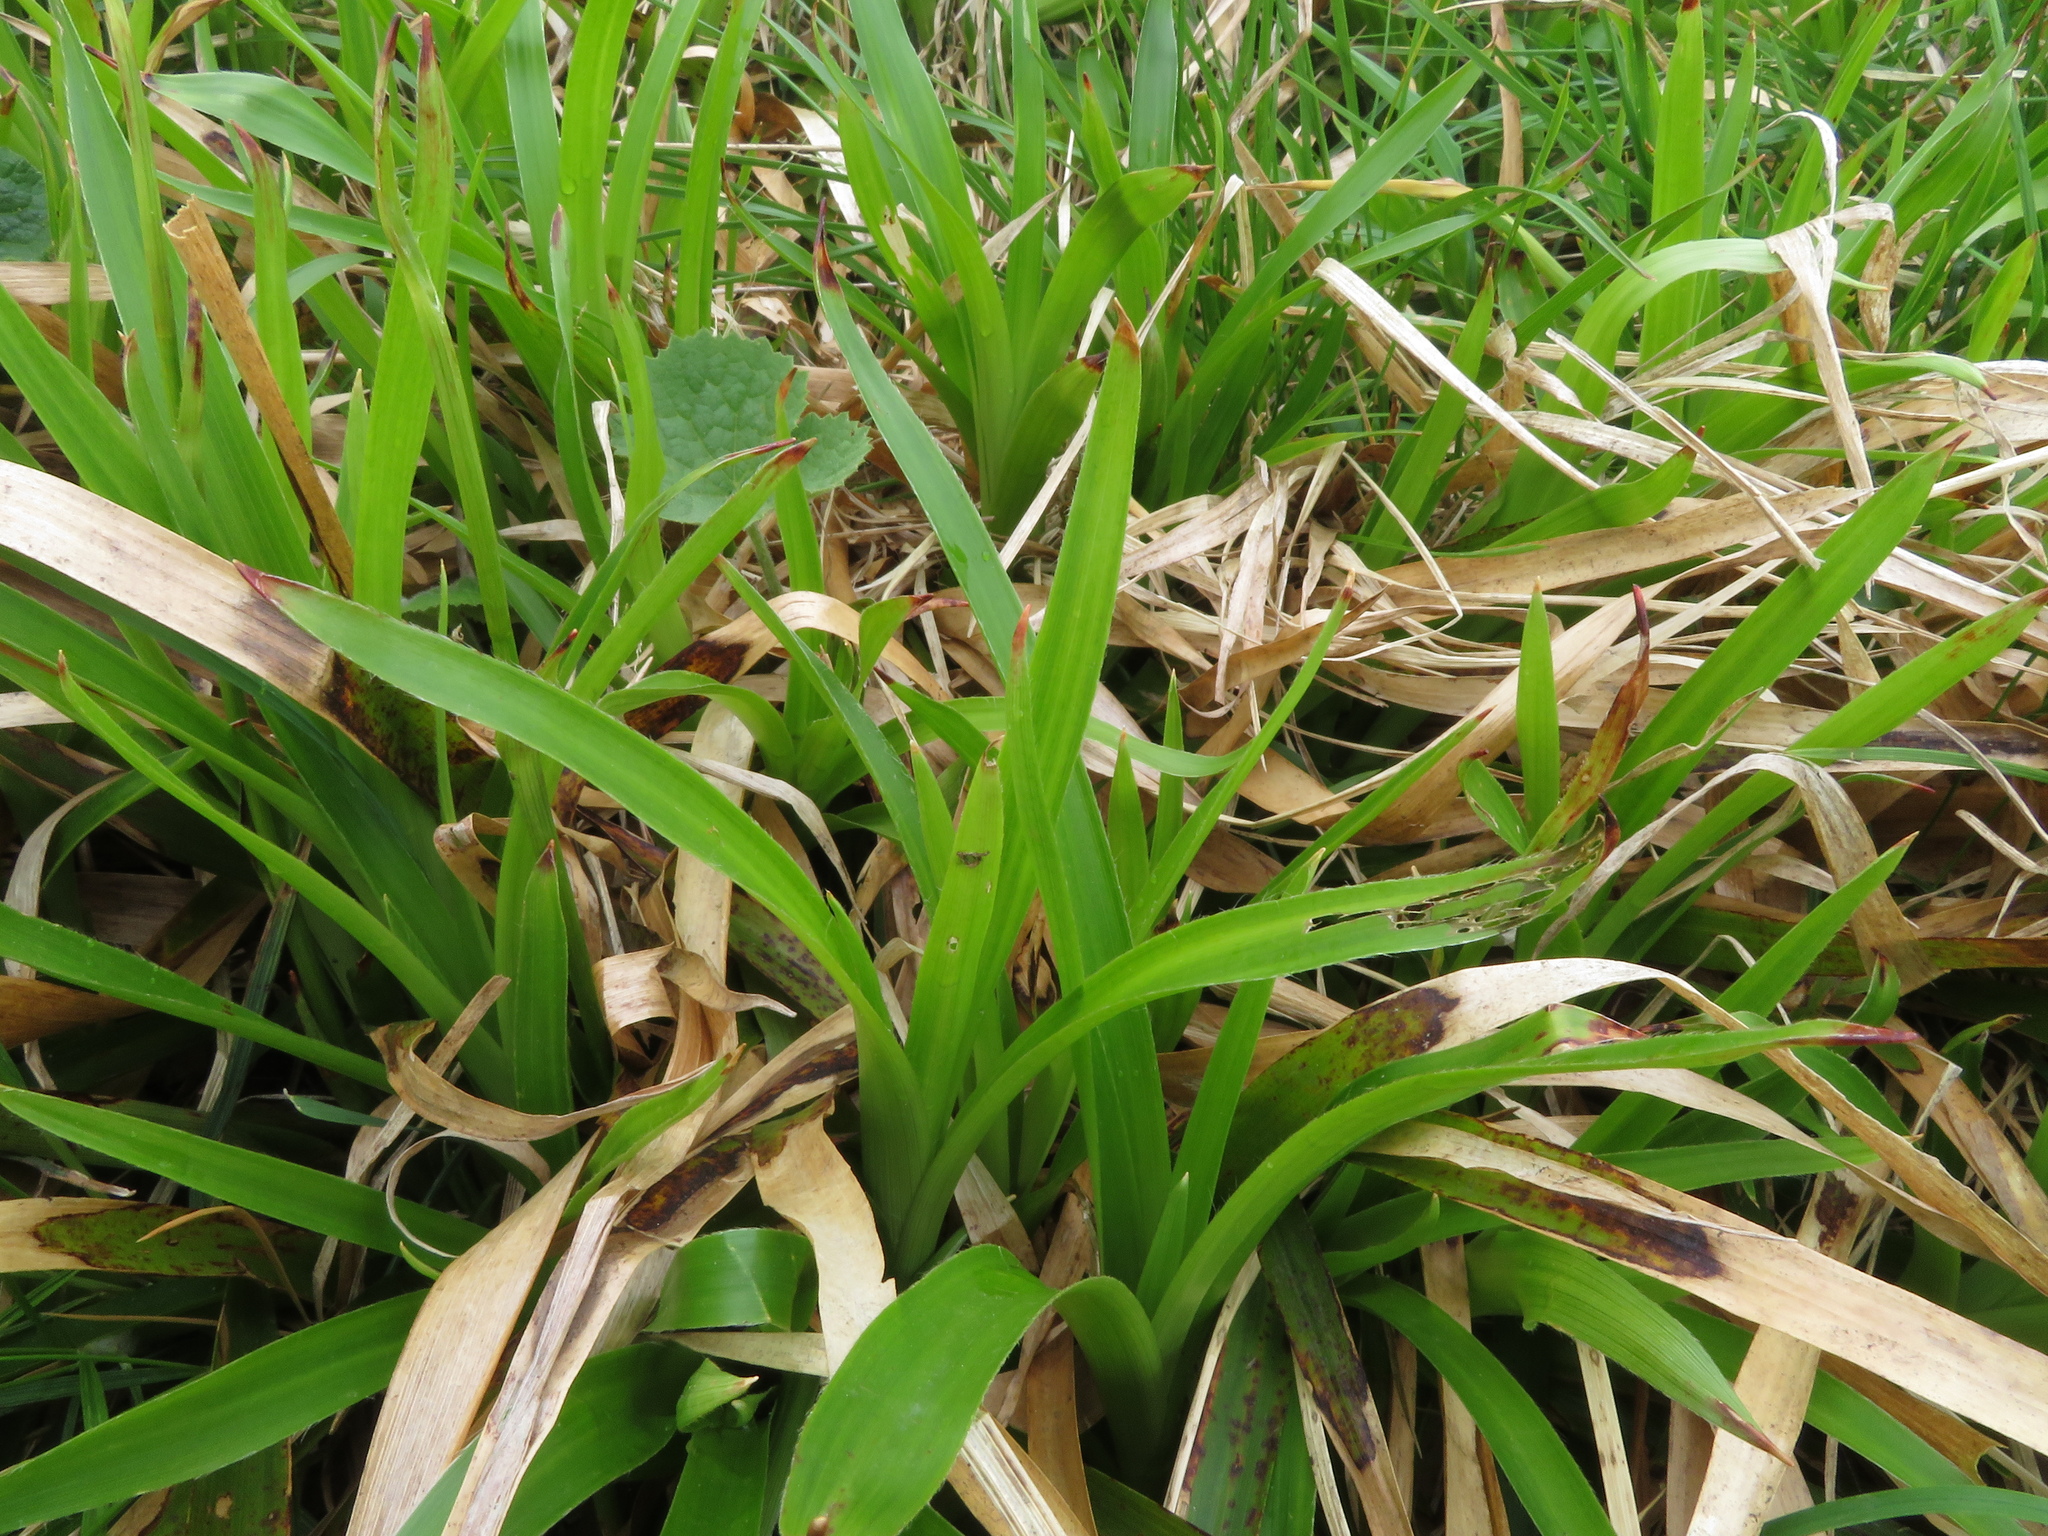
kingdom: Plantae
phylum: Tracheophyta
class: Liliopsida
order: Poales
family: Juncaceae
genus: Luzula
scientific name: Luzula sylvatica
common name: Great wood-rush
